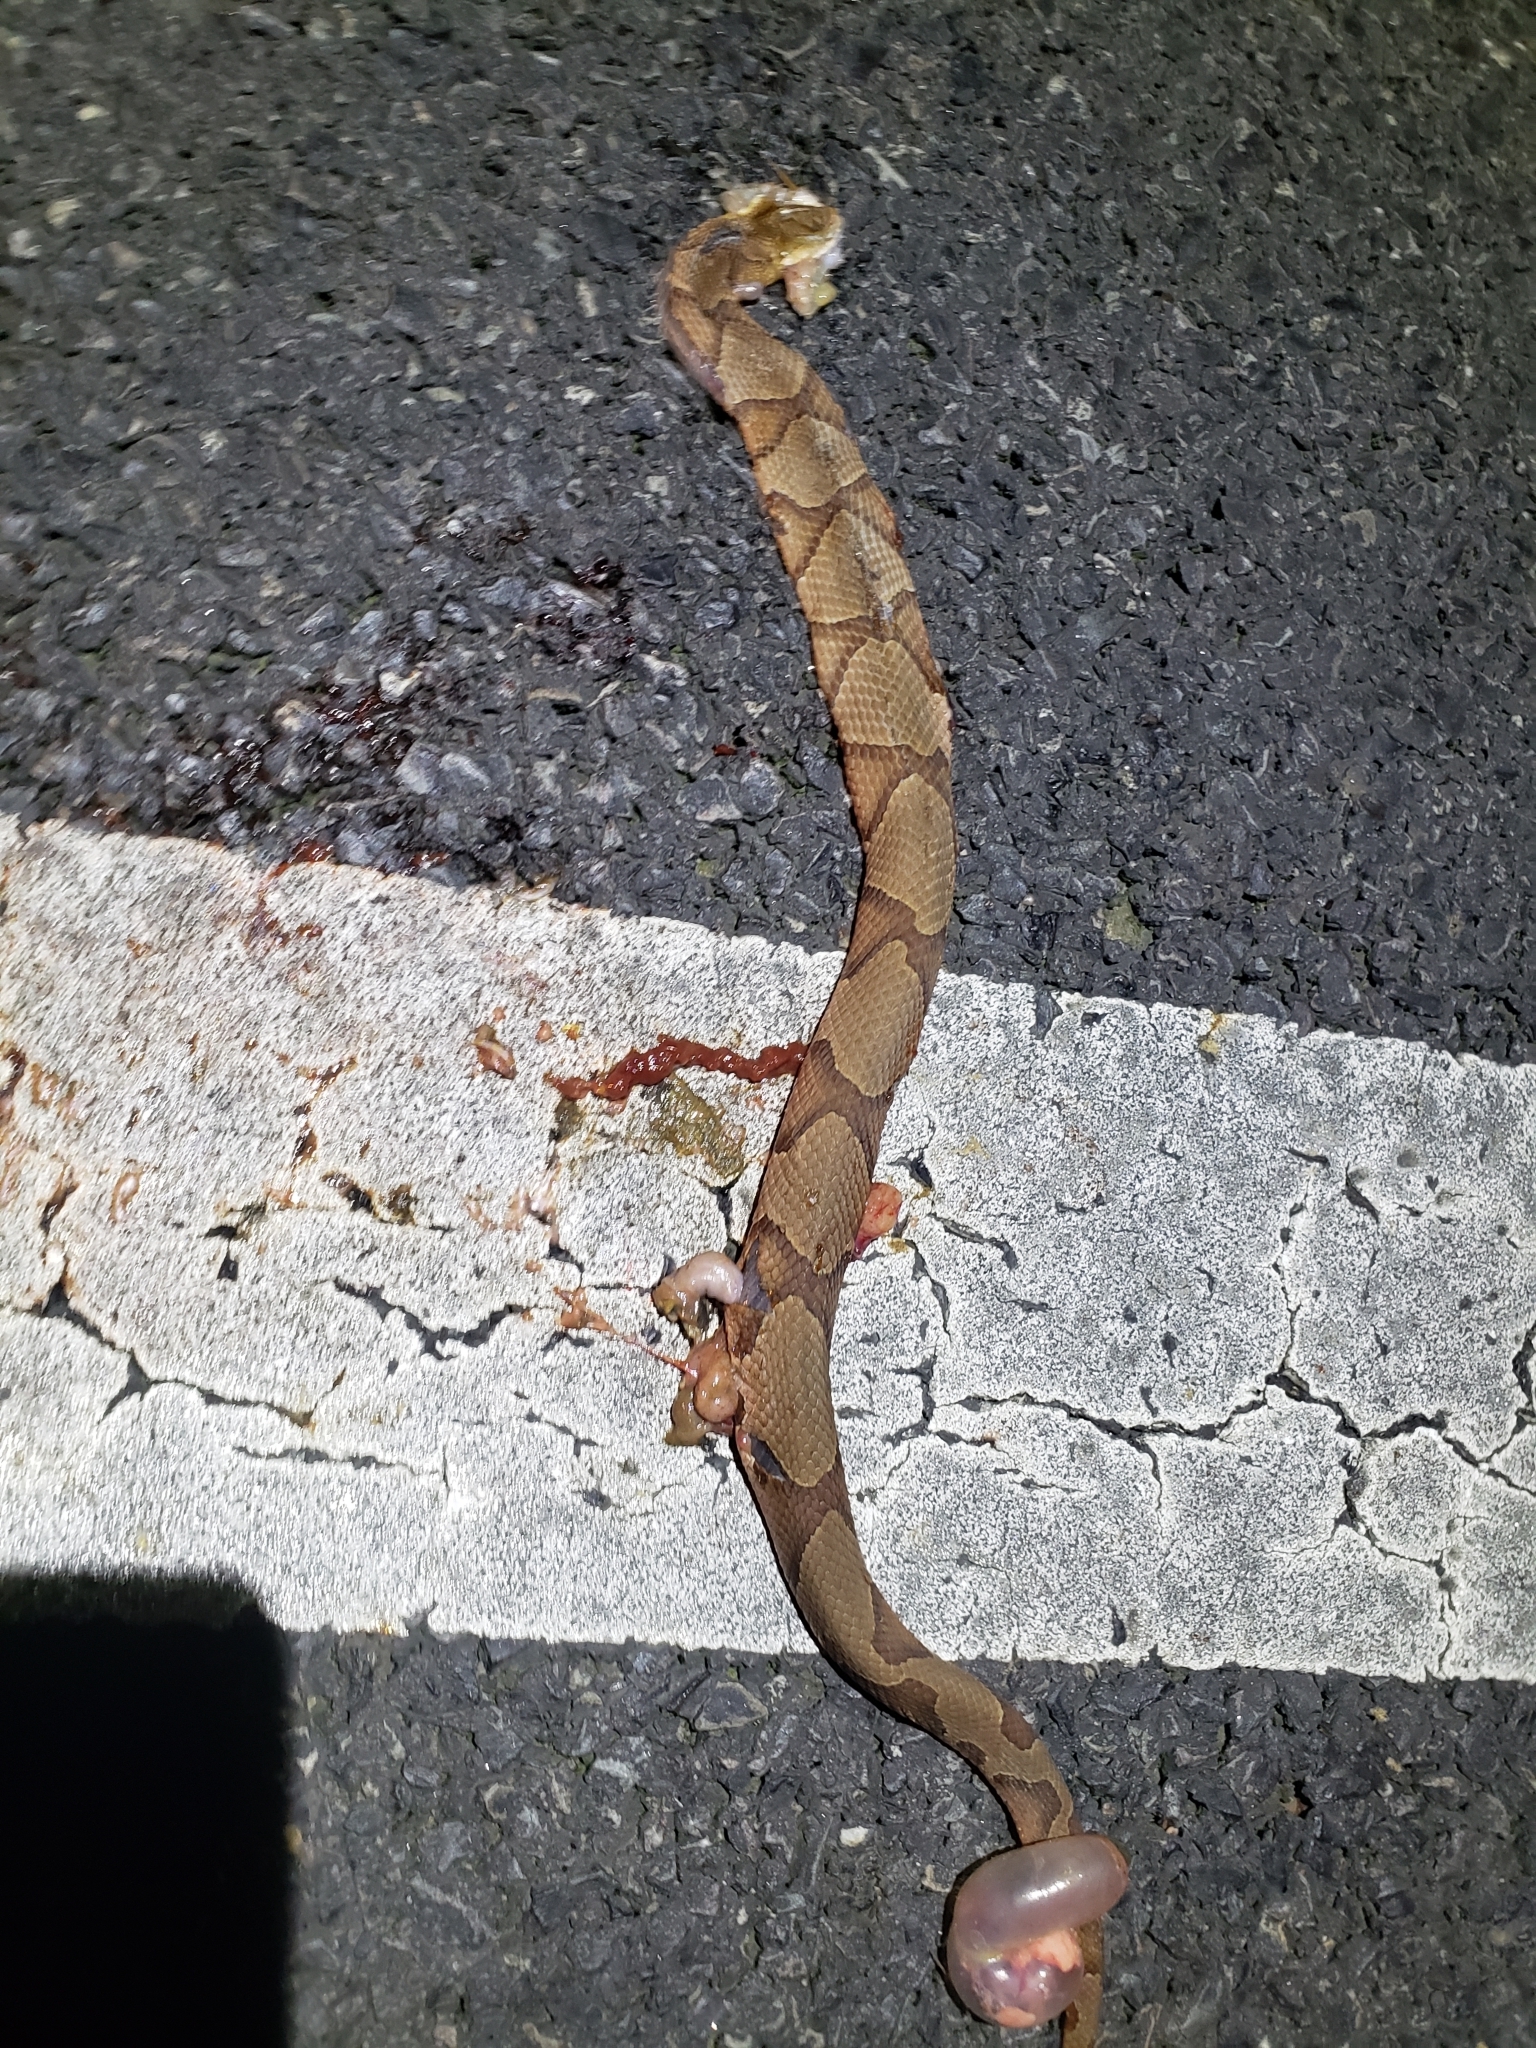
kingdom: Animalia
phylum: Chordata
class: Squamata
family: Viperidae
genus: Agkistrodon
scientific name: Agkistrodon contortrix
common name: Northern copperhead
